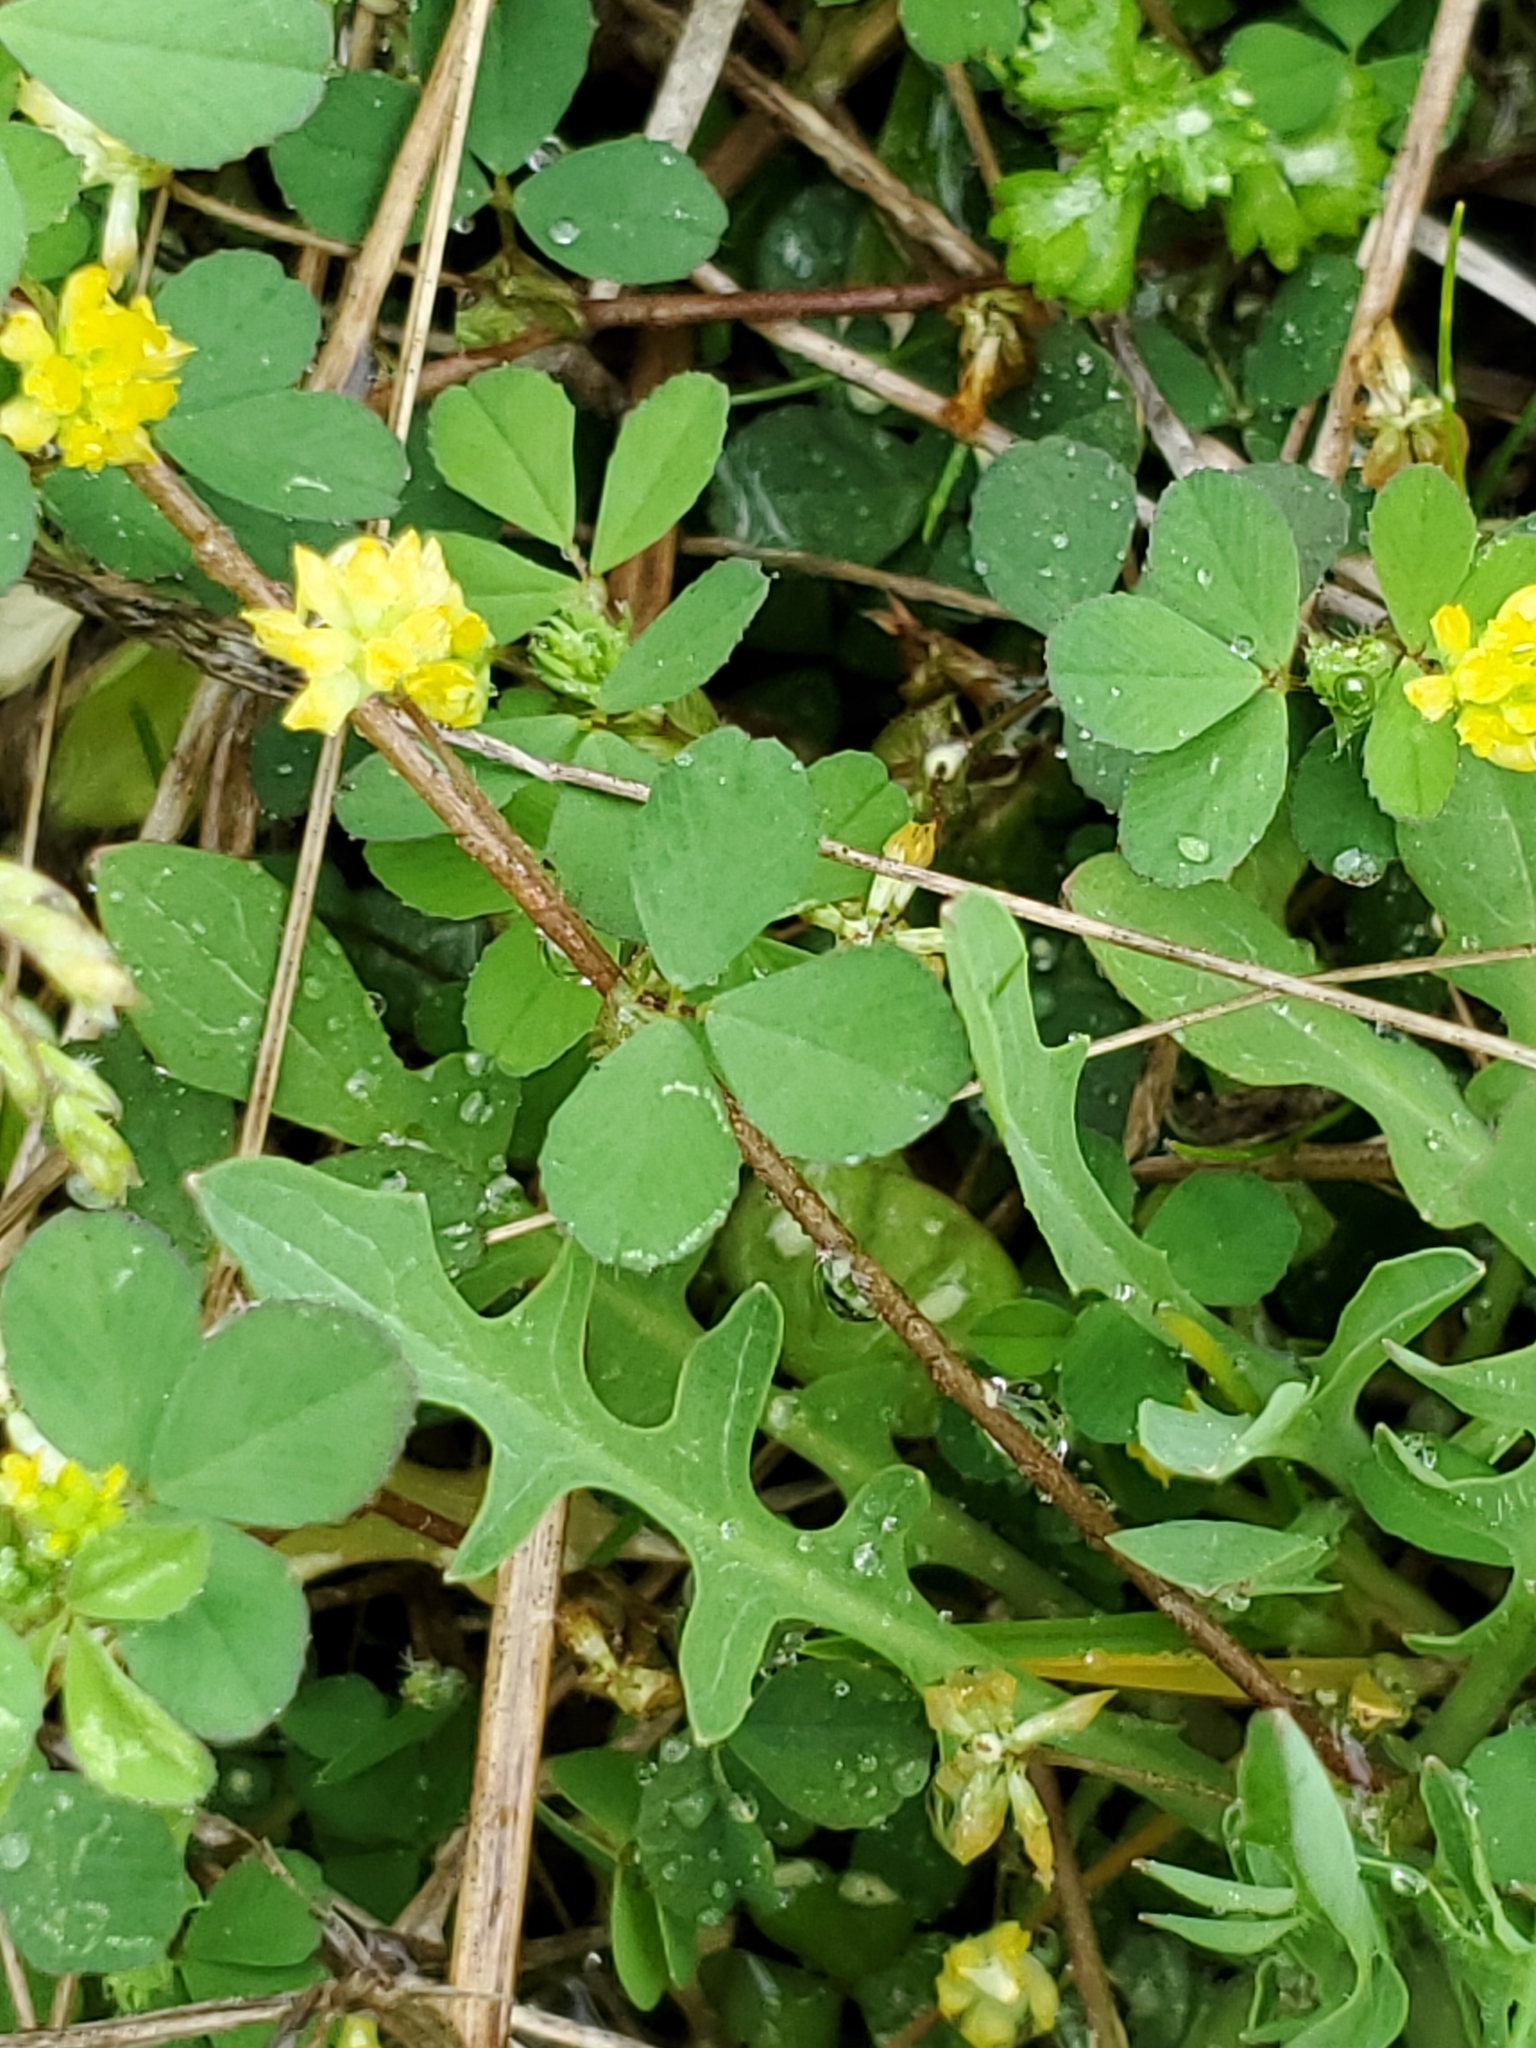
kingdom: Plantae
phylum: Tracheophyta
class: Magnoliopsida
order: Fabales
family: Fabaceae
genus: Trifolium
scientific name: Trifolium dubium
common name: Suckling clover
